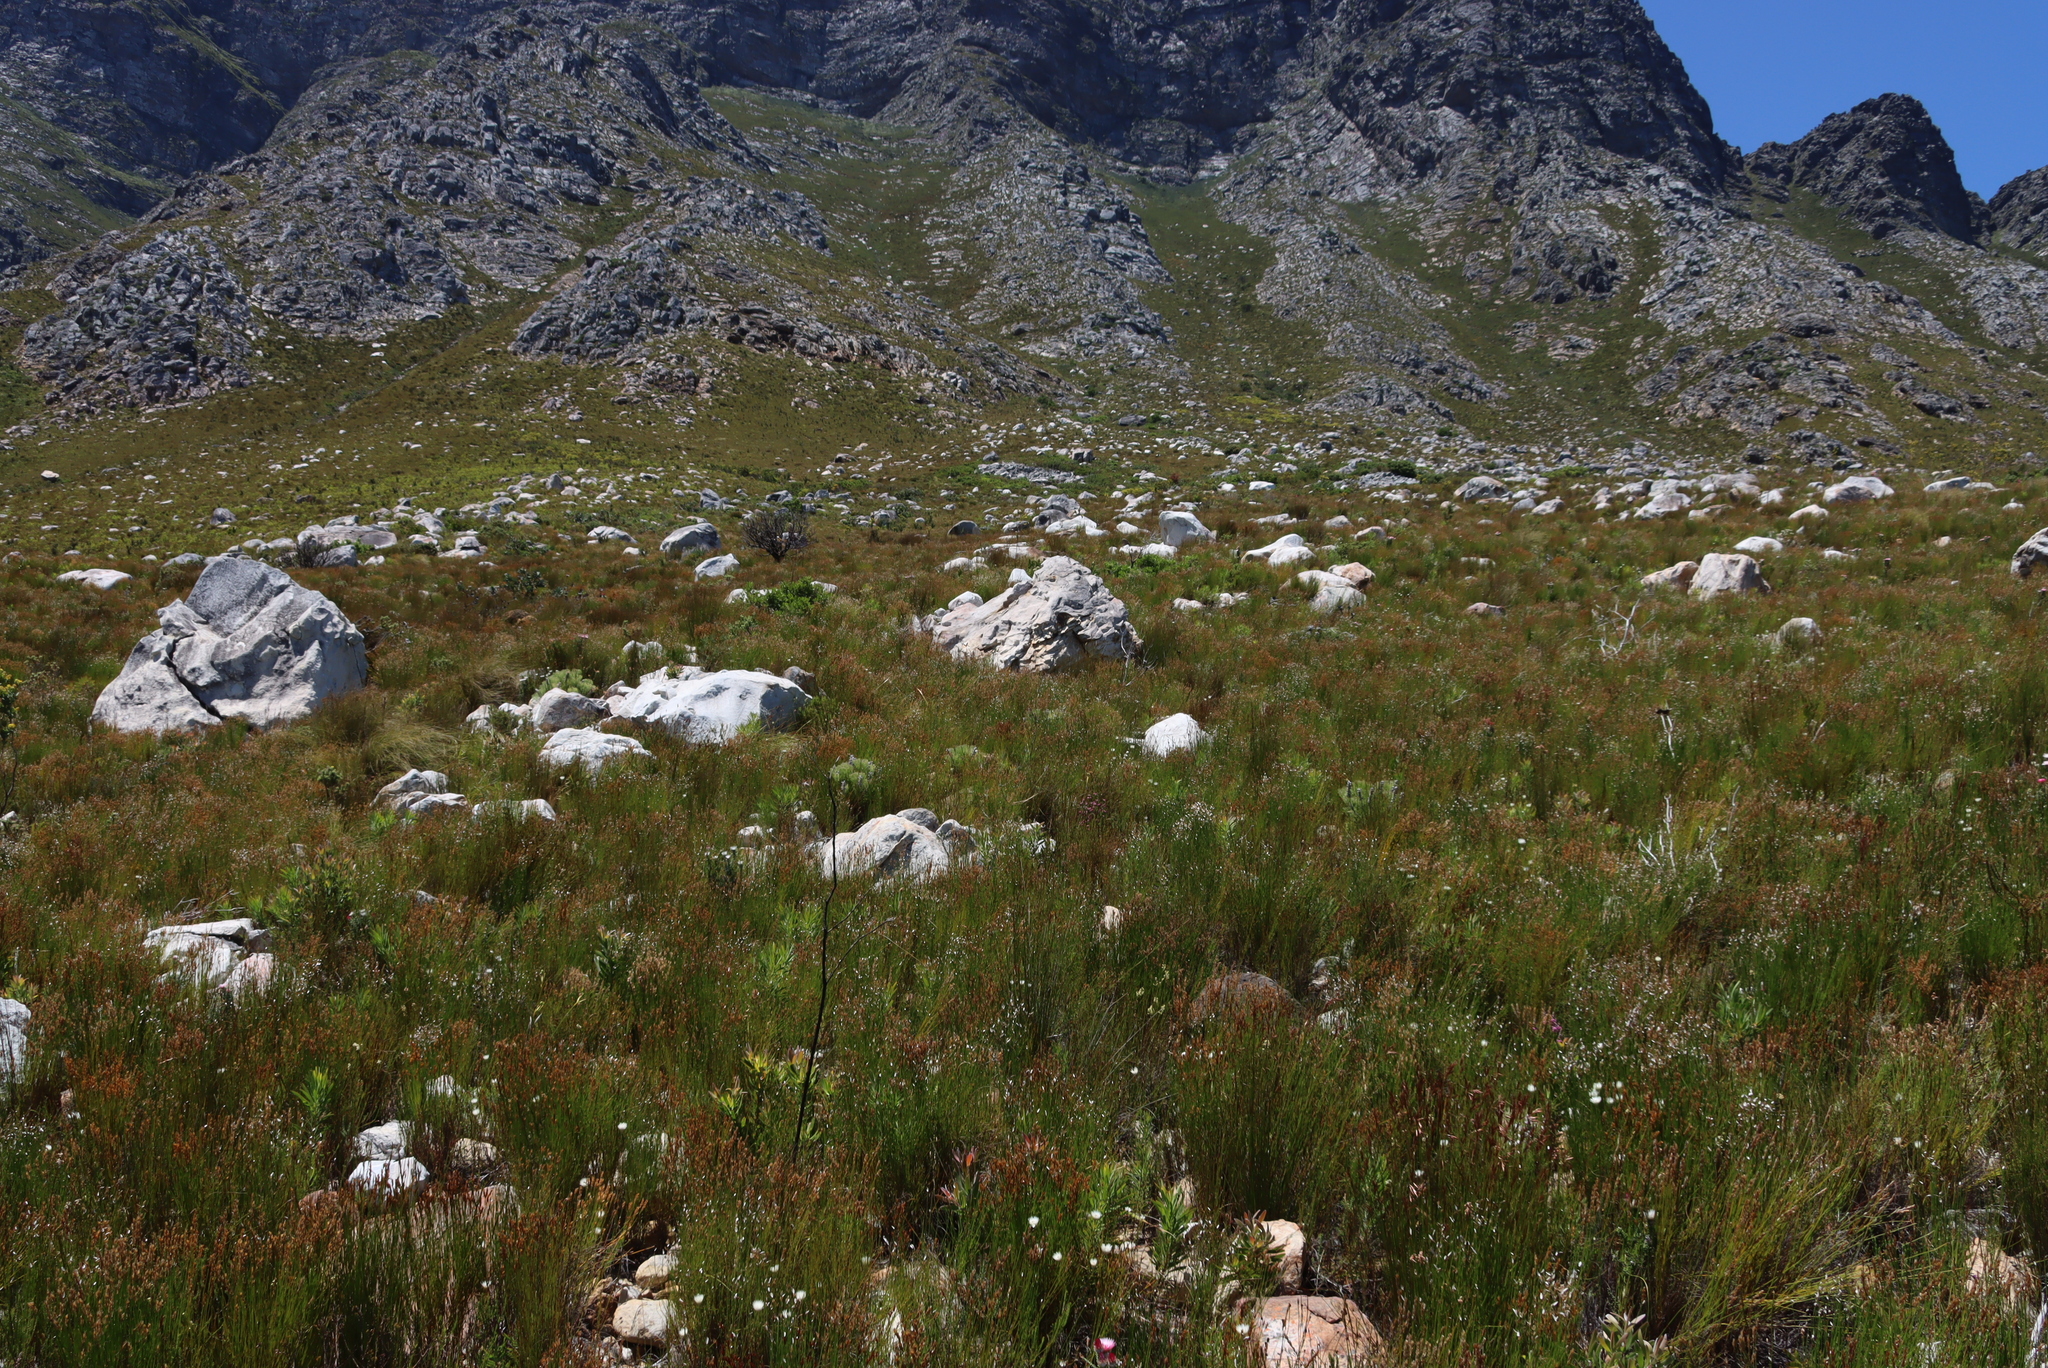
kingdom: Plantae
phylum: Tracheophyta
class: Magnoliopsida
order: Proteales
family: Proteaceae
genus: Paranomus
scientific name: Paranomus spicatus
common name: Kogelberg sceptre
